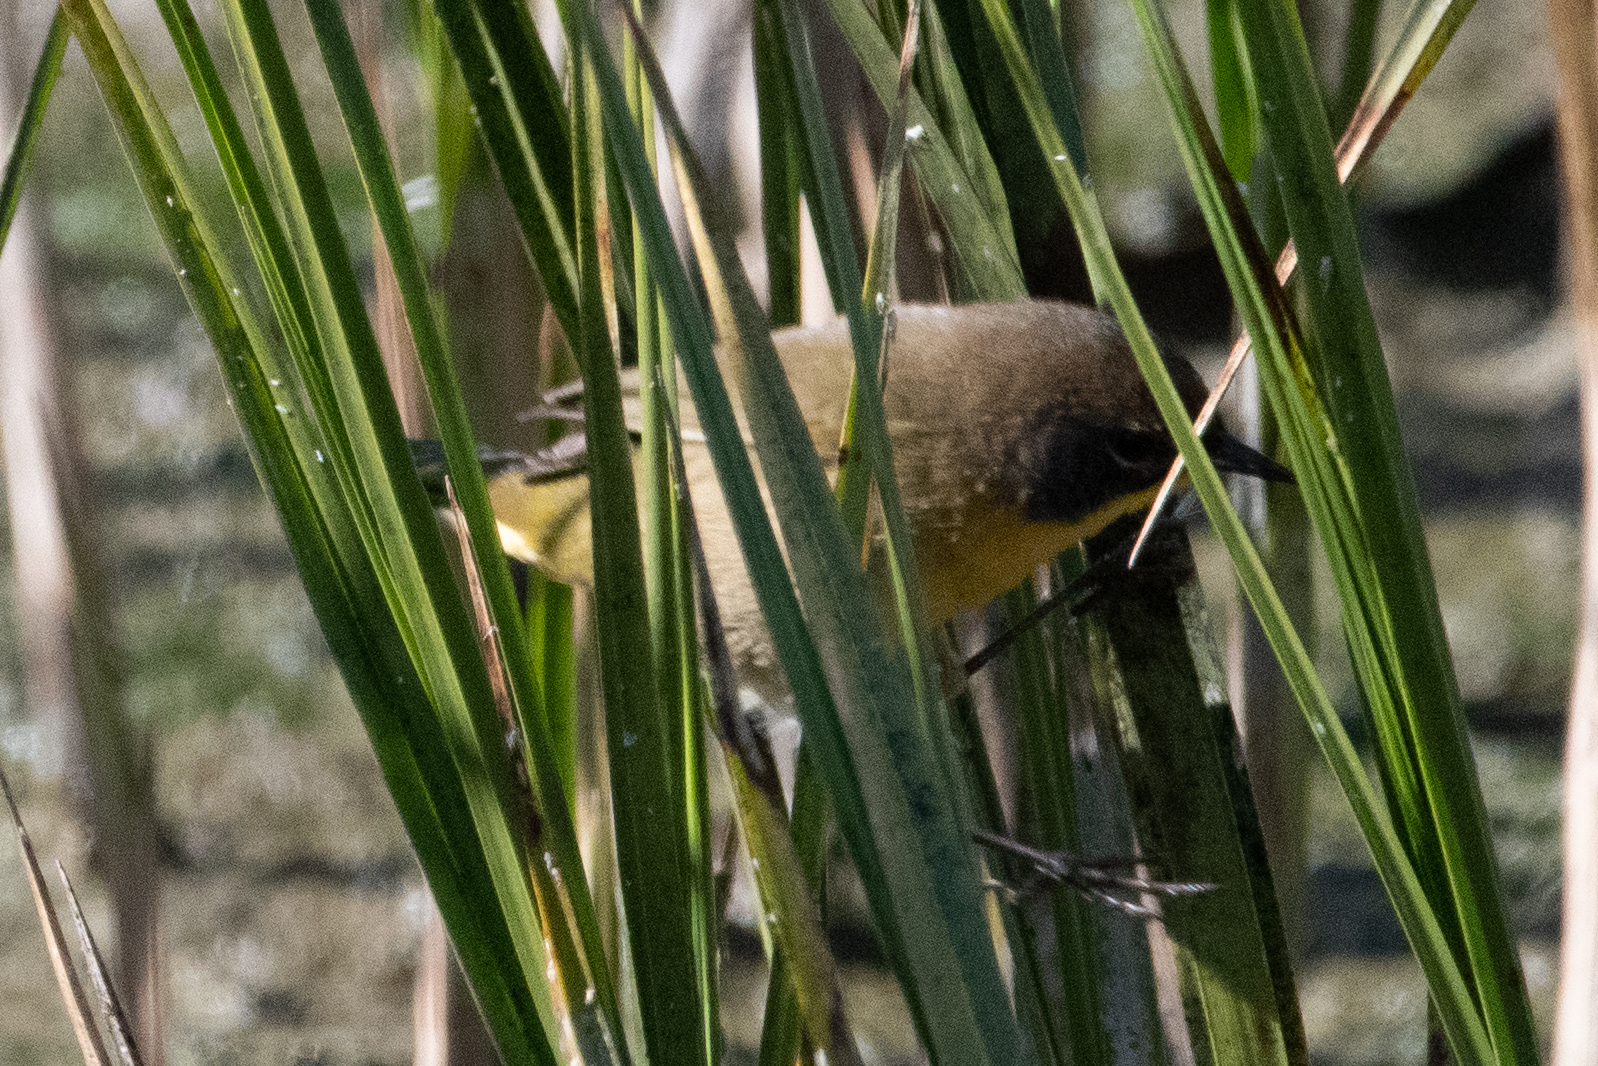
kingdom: Animalia
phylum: Chordata
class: Aves
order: Passeriformes
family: Parulidae
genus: Geothlypis
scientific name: Geothlypis trichas
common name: Common yellowthroat
